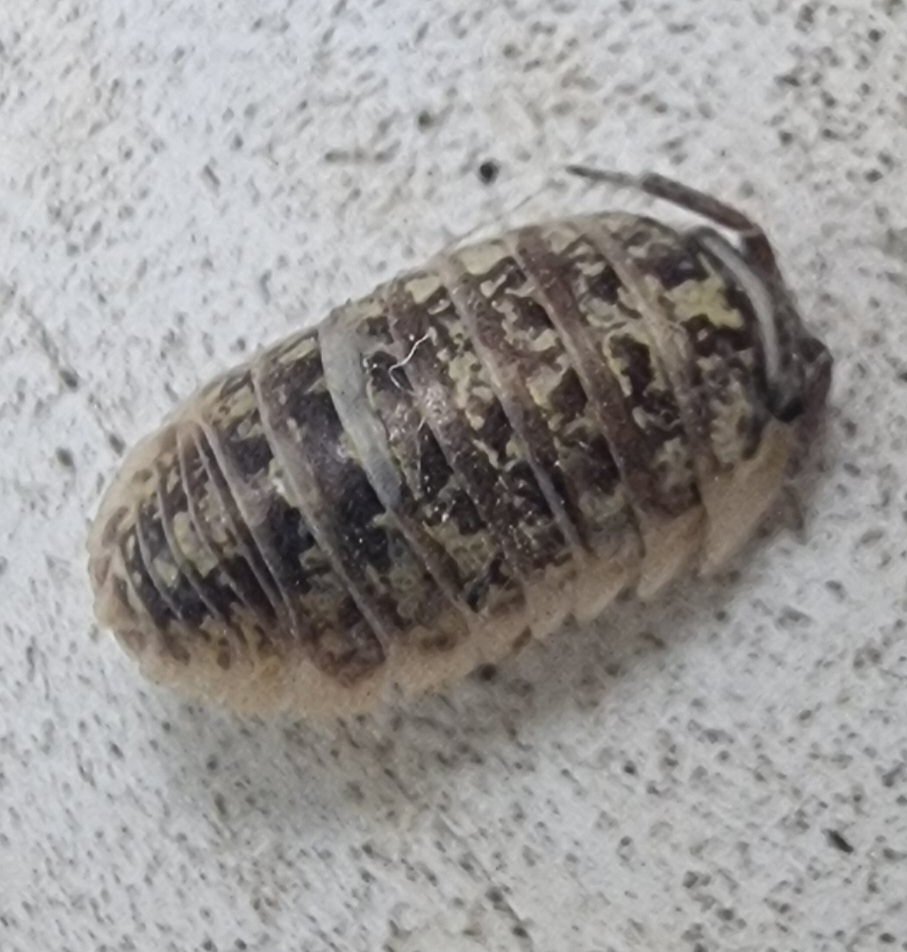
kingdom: Animalia
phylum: Arthropoda
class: Malacostraca
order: Isopoda
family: Armadillidiidae
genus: Armadillidium
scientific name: Armadillidium versicolor
